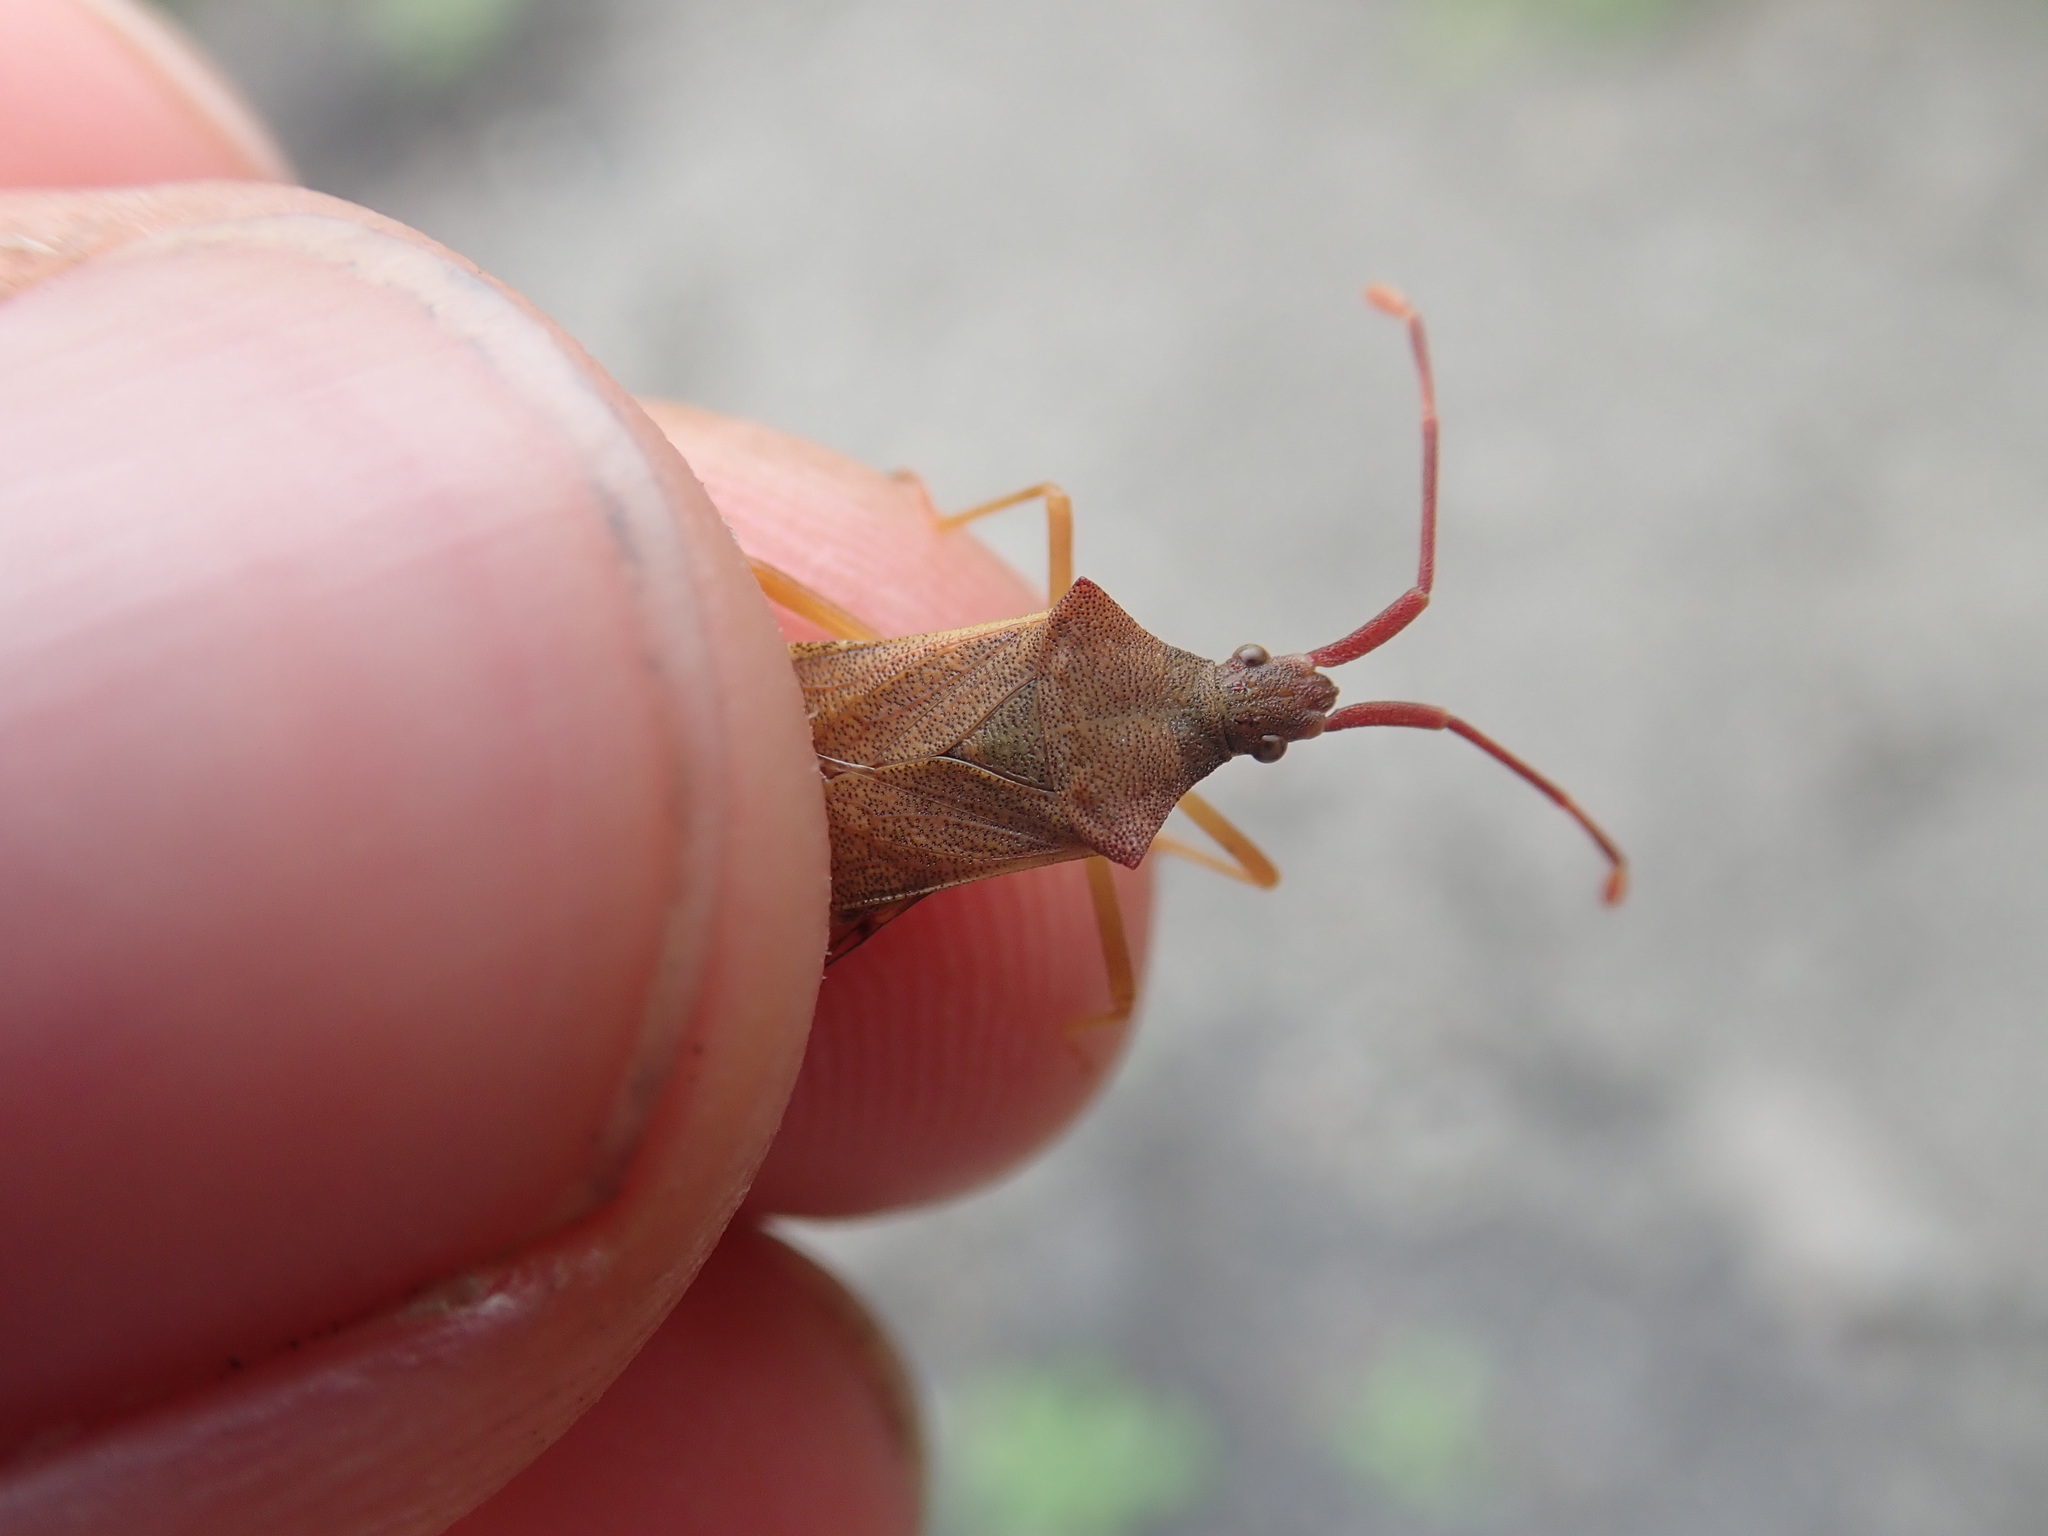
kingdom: Animalia
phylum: Arthropoda
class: Insecta
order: Hemiptera
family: Coreidae
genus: Gonocerus
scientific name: Gonocerus acuteangulatus
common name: Box bug
